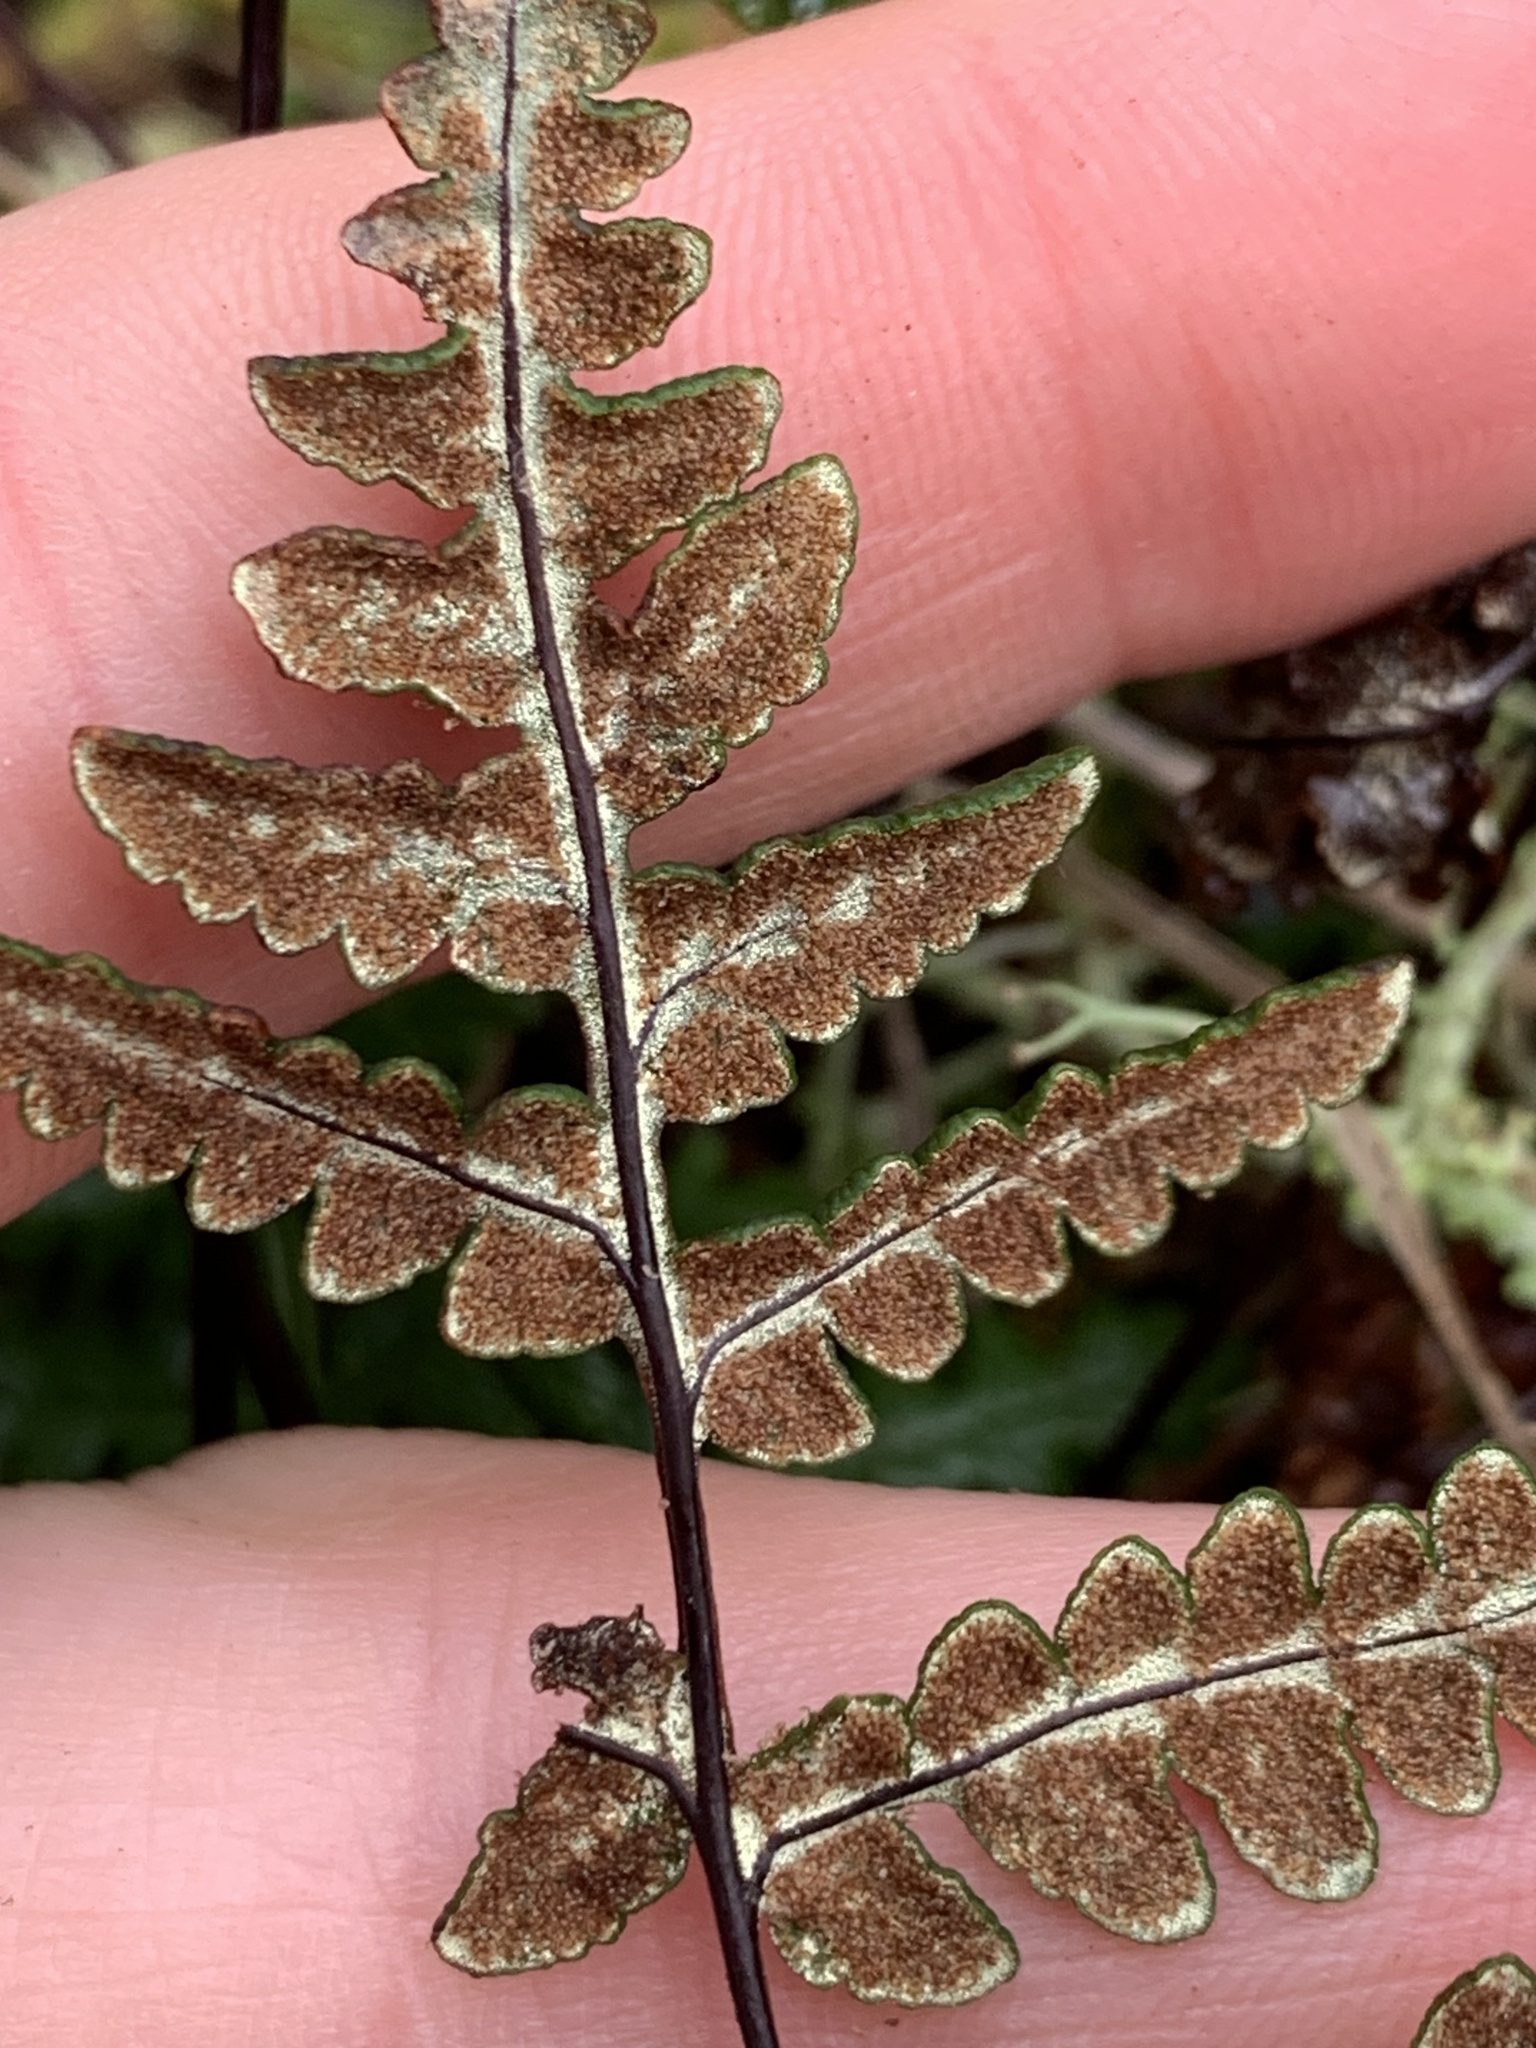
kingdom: Plantae
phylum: Tracheophyta
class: Polypodiopsida
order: Polypodiales
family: Pteridaceae
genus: Pentagramma
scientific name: Pentagramma triangularis
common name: Gold fern
